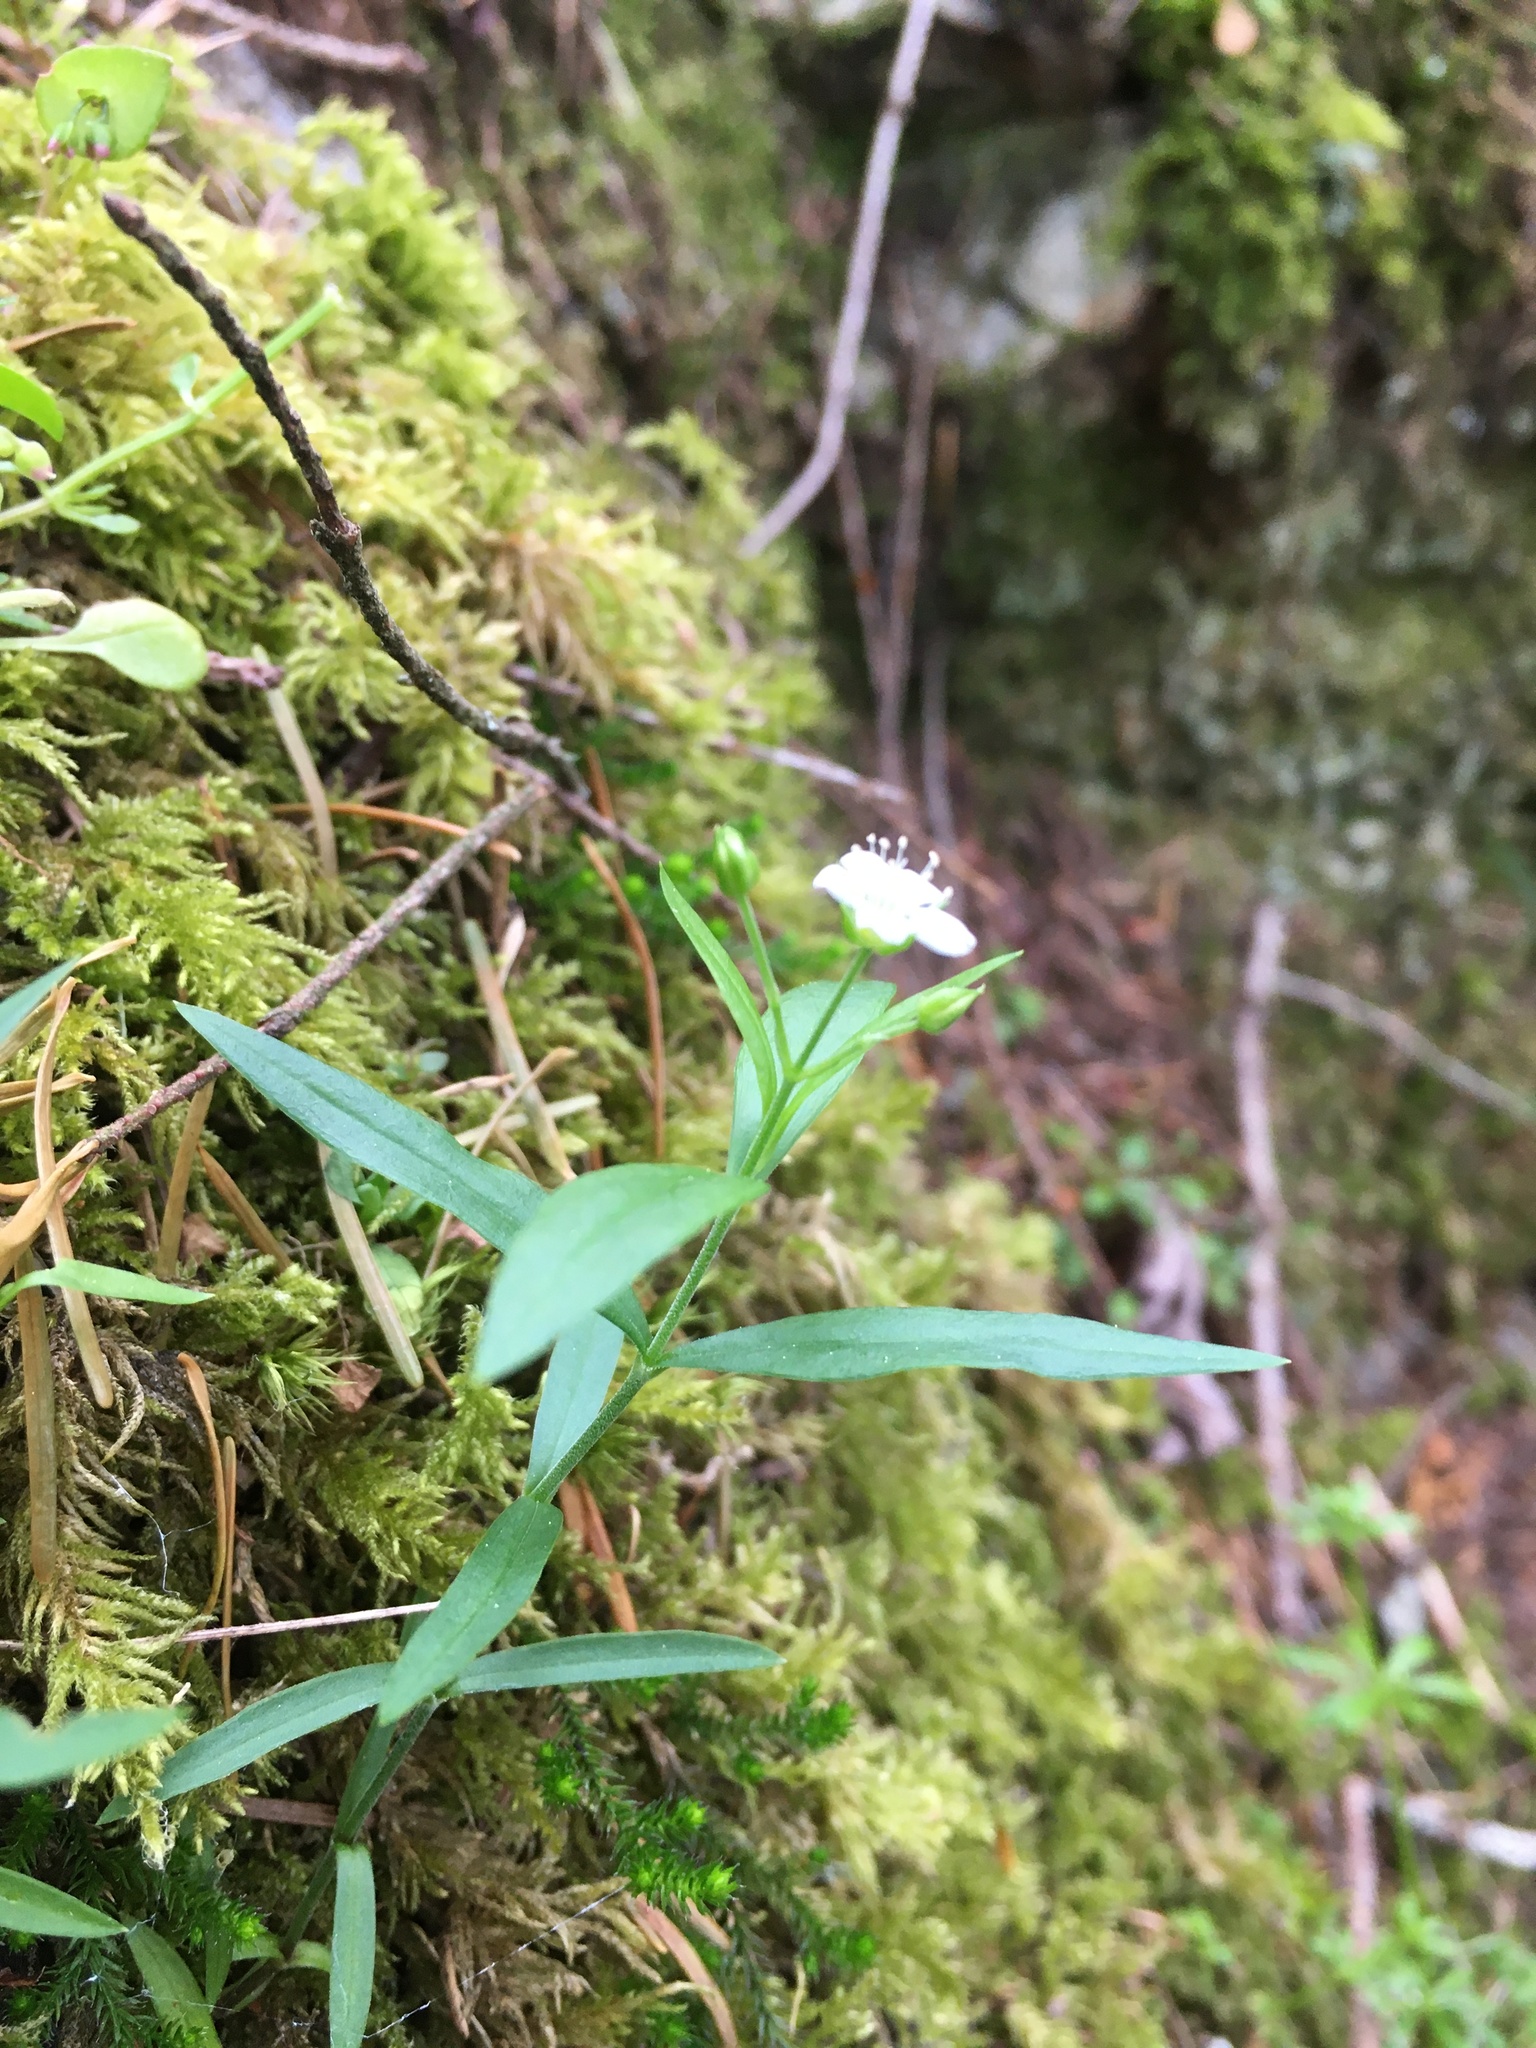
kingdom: Plantae
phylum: Tracheophyta
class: Magnoliopsida
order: Caryophyllales
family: Caryophyllaceae
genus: Moehringia
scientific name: Moehringia macrophylla
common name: Big-leaf sandwort
